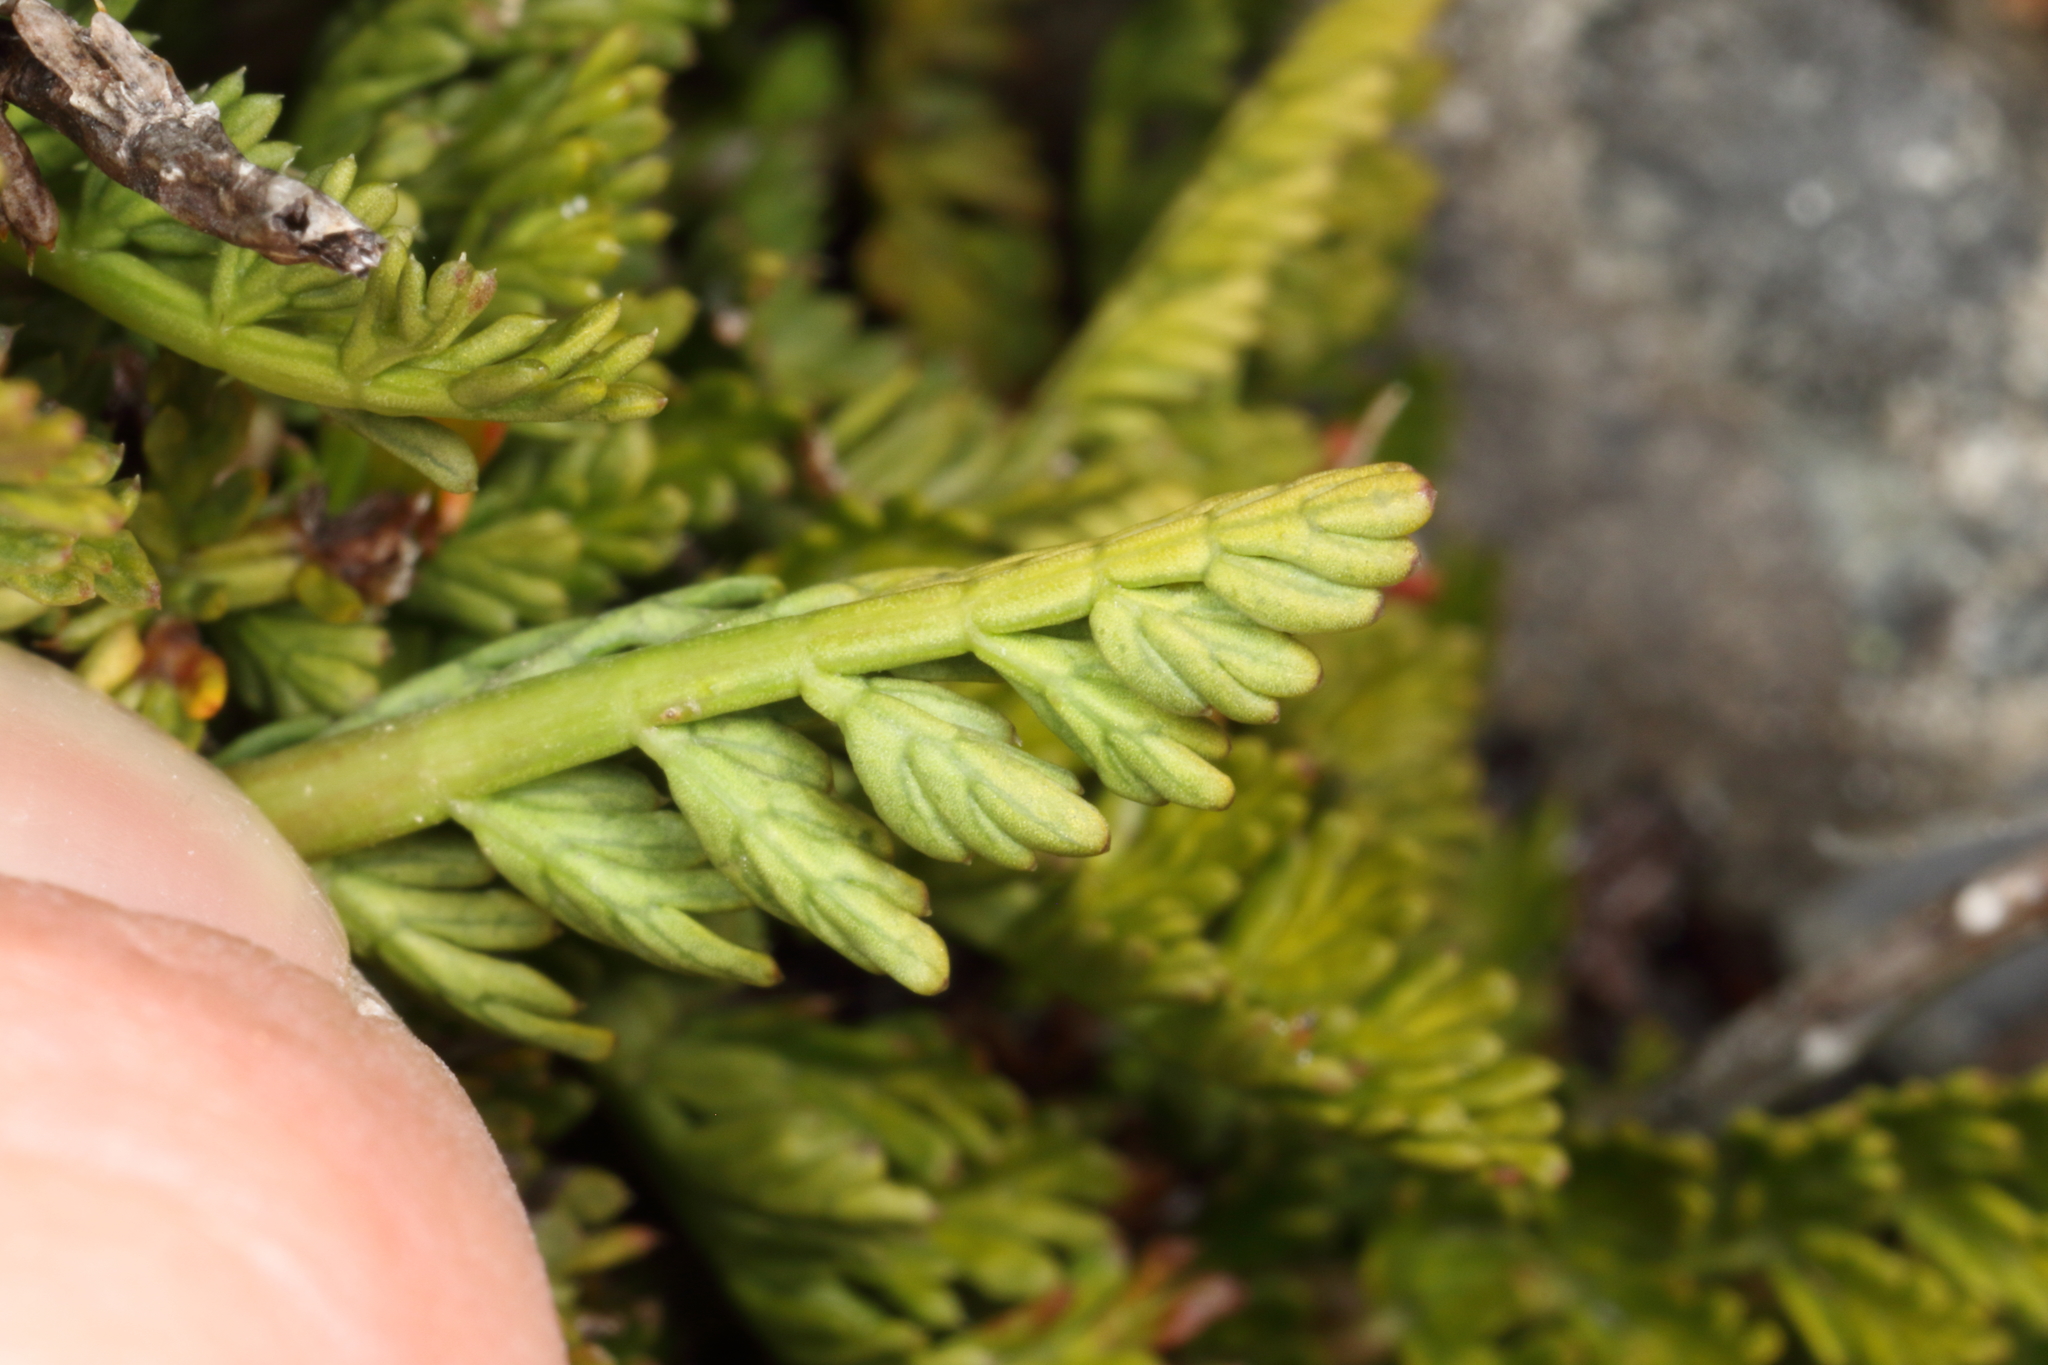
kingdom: Plantae
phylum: Tracheophyta
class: Magnoliopsida
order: Apiales
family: Apiaceae
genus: Anisotome
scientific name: Anisotome flexuosa
